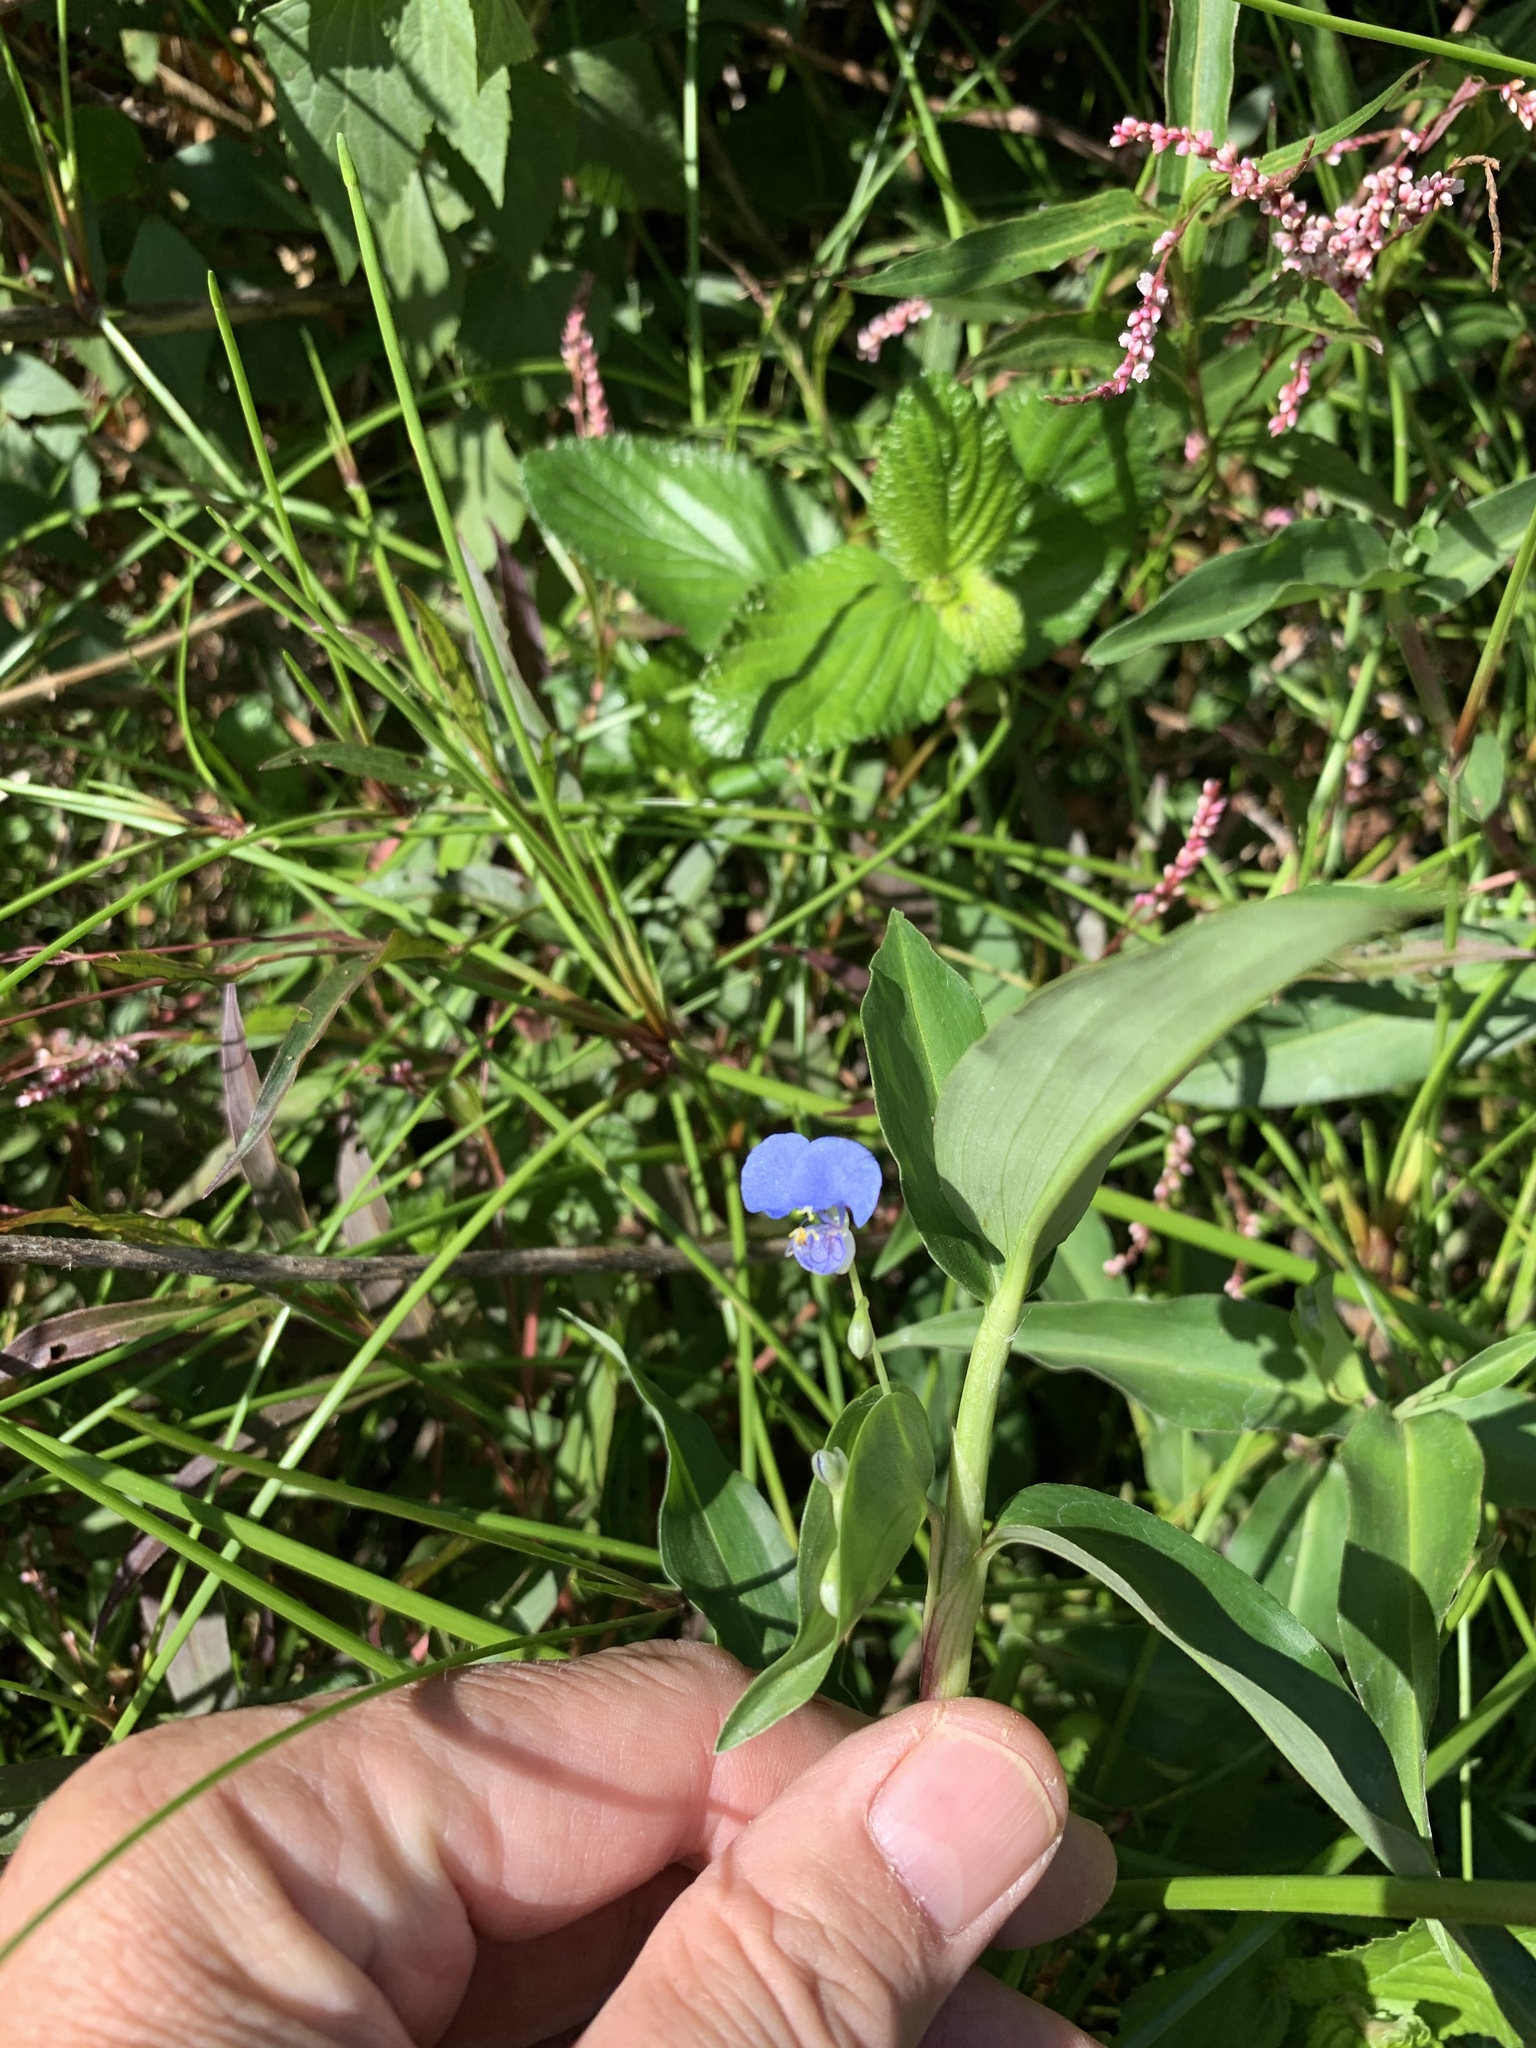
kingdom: Plantae
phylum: Tracheophyta
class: Liliopsida
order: Commelinales
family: Commelinaceae
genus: Commelina
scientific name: Commelina diffusa
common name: Climbing dayflower
